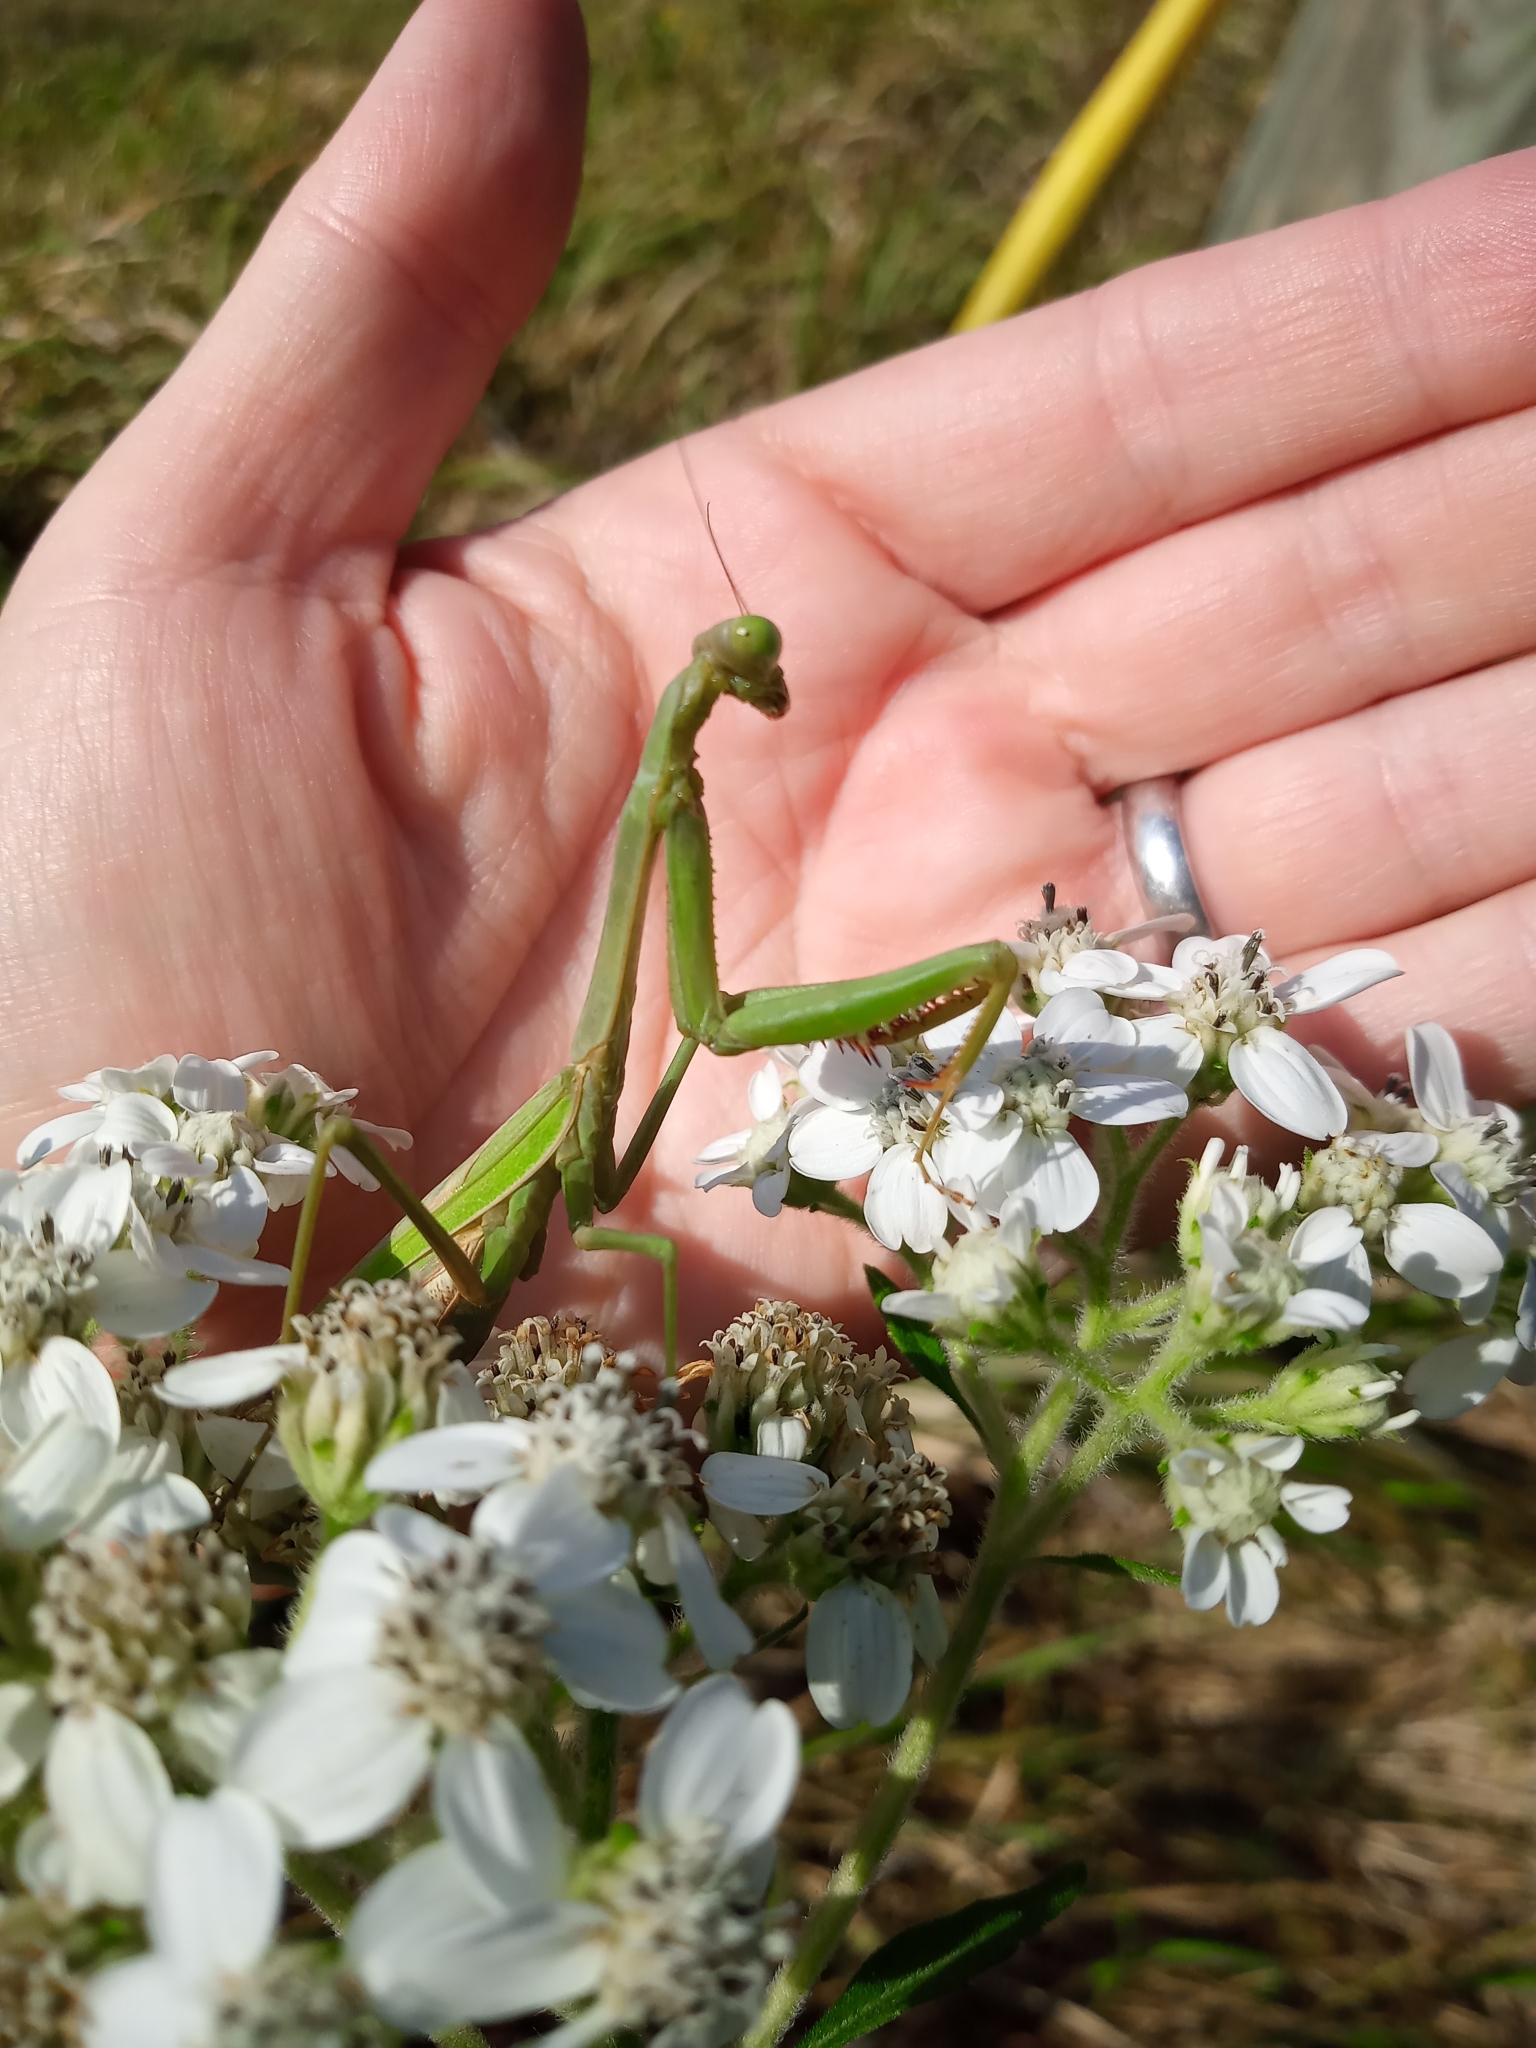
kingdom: Animalia
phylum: Arthropoda
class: Insecta
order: Mantodea
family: Mantidae
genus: Stagmomantis
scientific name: Stagmomantis carolina
